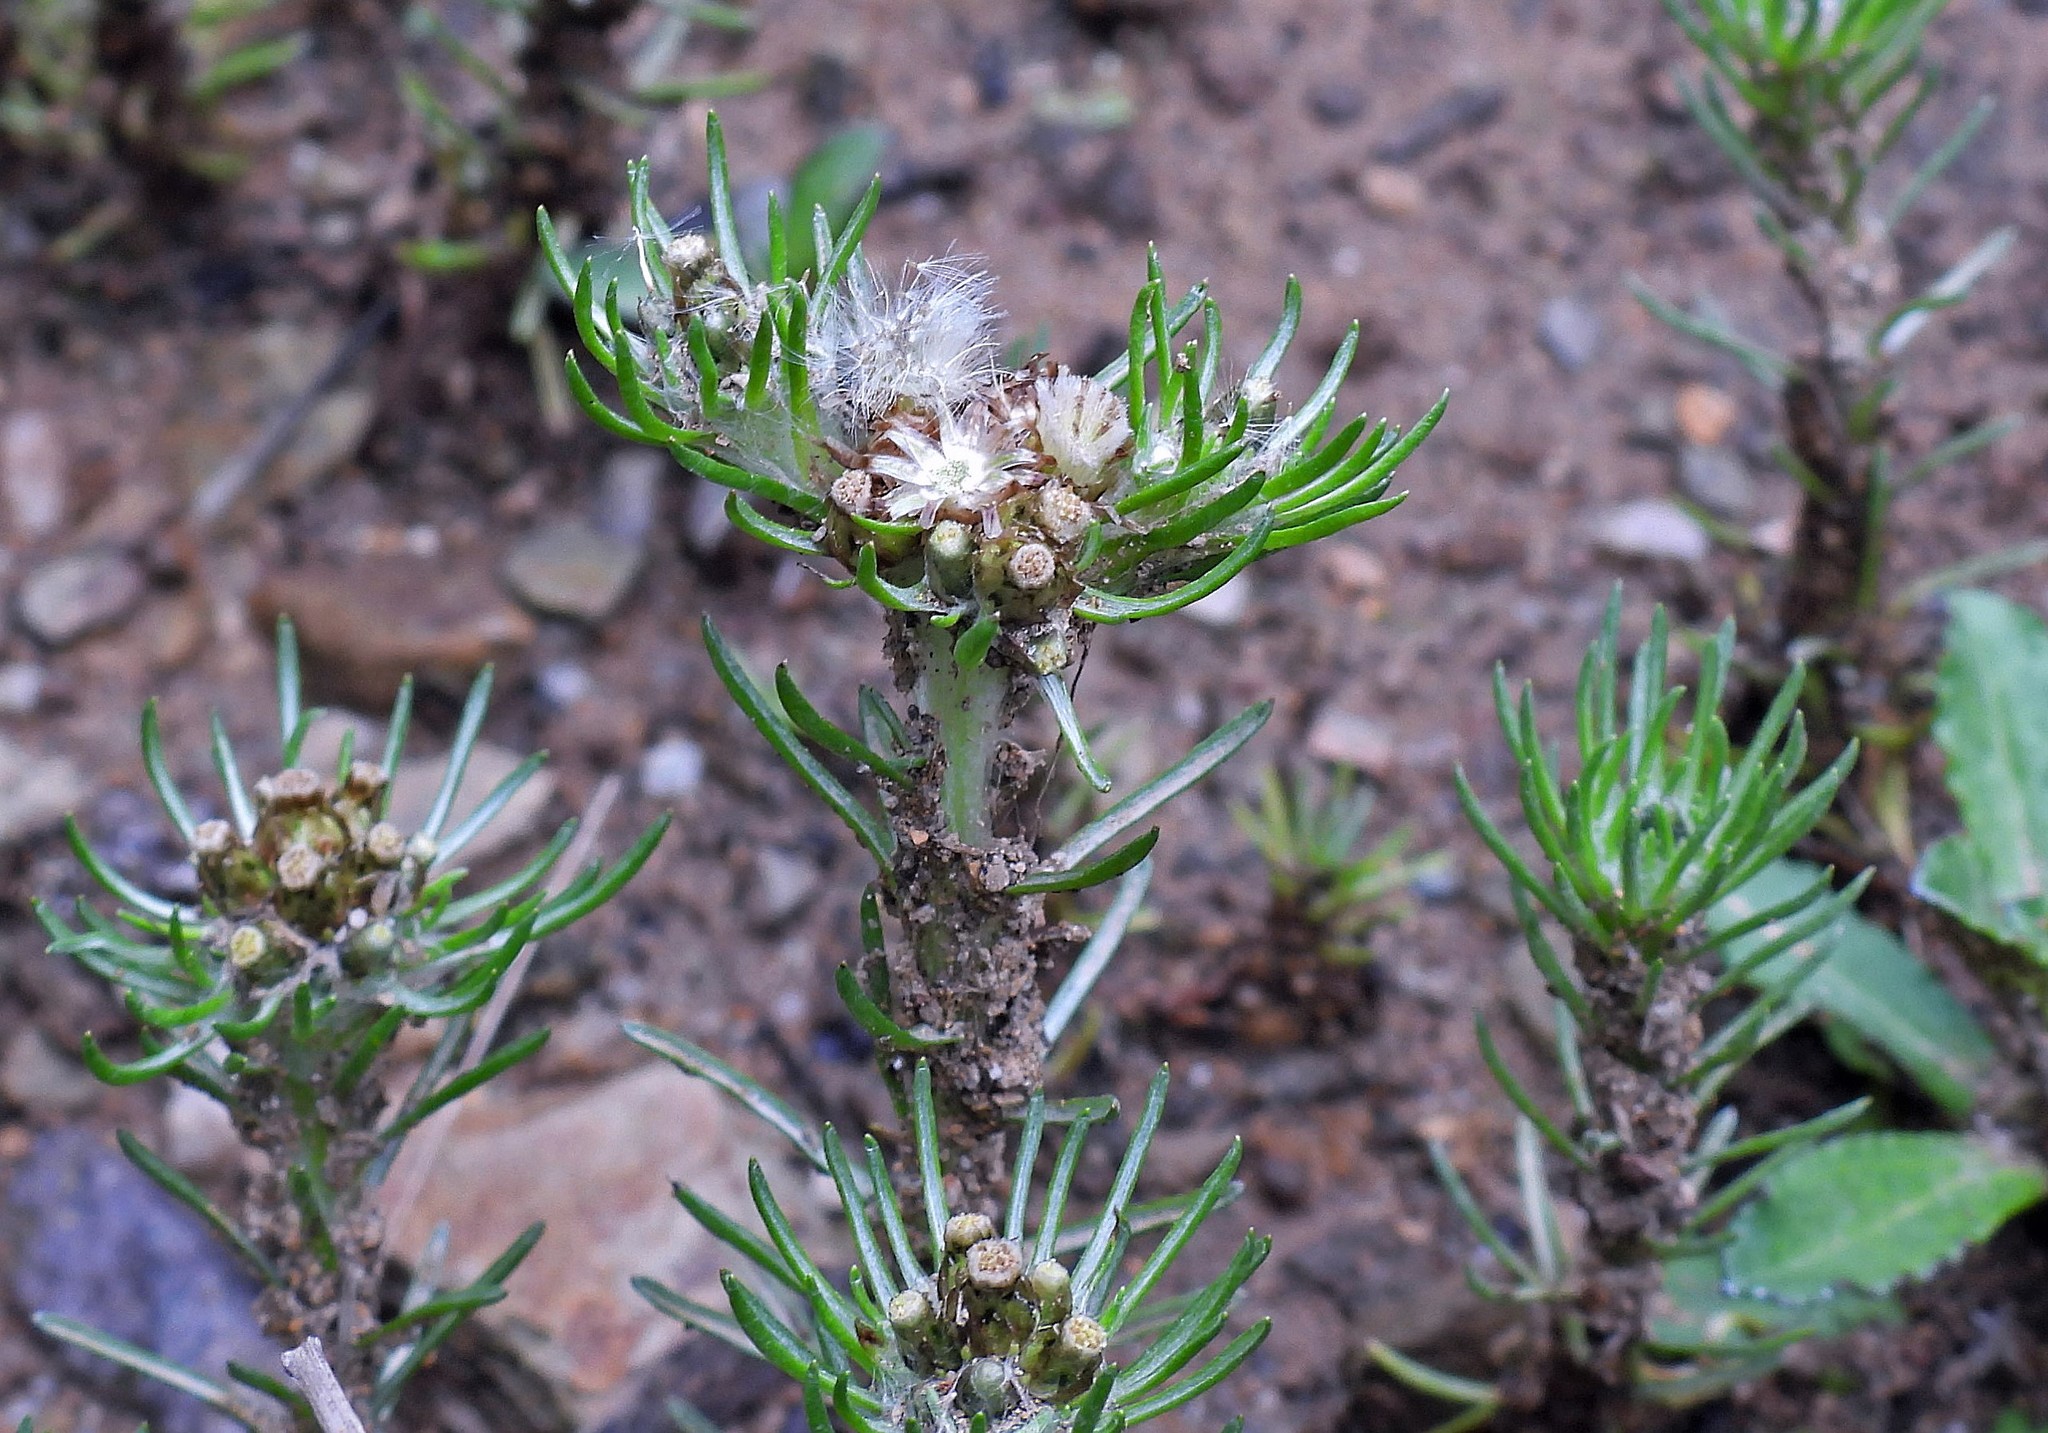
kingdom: Plantae
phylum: Tracheophyta
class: Magnoliopsida
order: Asterales
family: Asteraceae
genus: Gamochaeta
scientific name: Gamochaeta capitata
